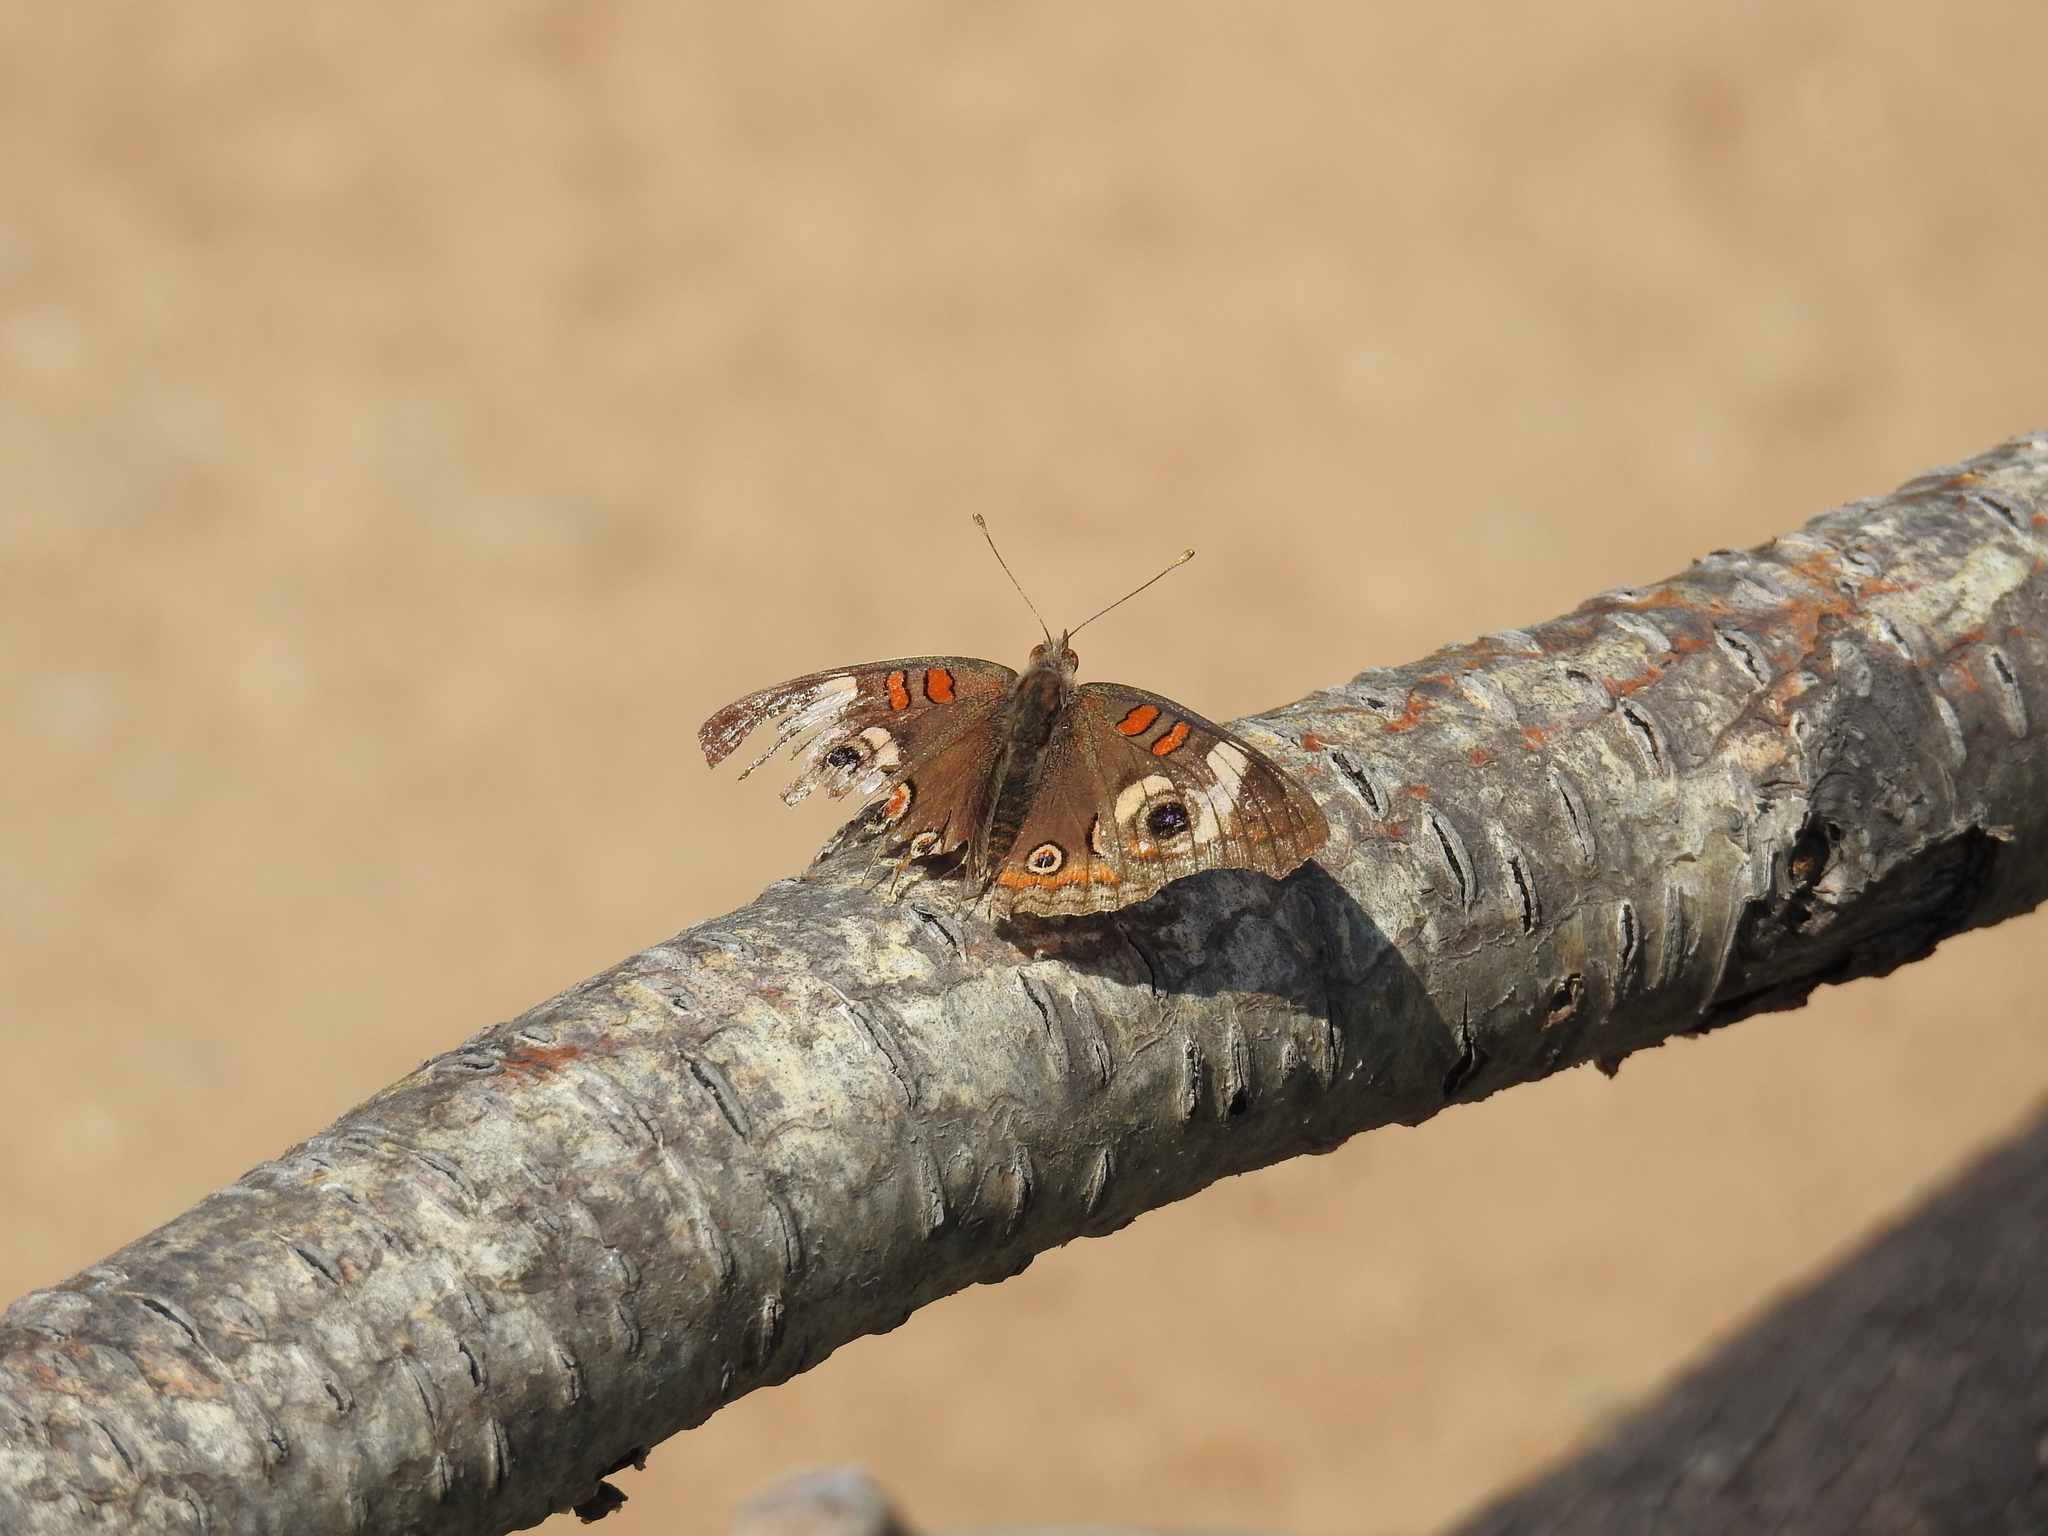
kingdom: Animalia
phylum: Arthropoda
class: Insecta
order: Lepidoptera
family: Nymphalidae
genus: Junonia
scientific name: Junonia grisea
